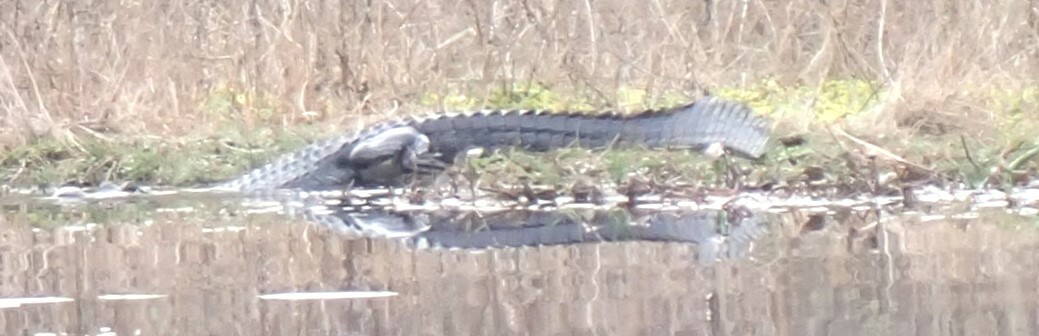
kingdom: Animalia
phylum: Chordata
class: Crocodylia
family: Alligatoridae
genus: Alligator
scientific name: Alligator mississippiensis
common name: American alligator
